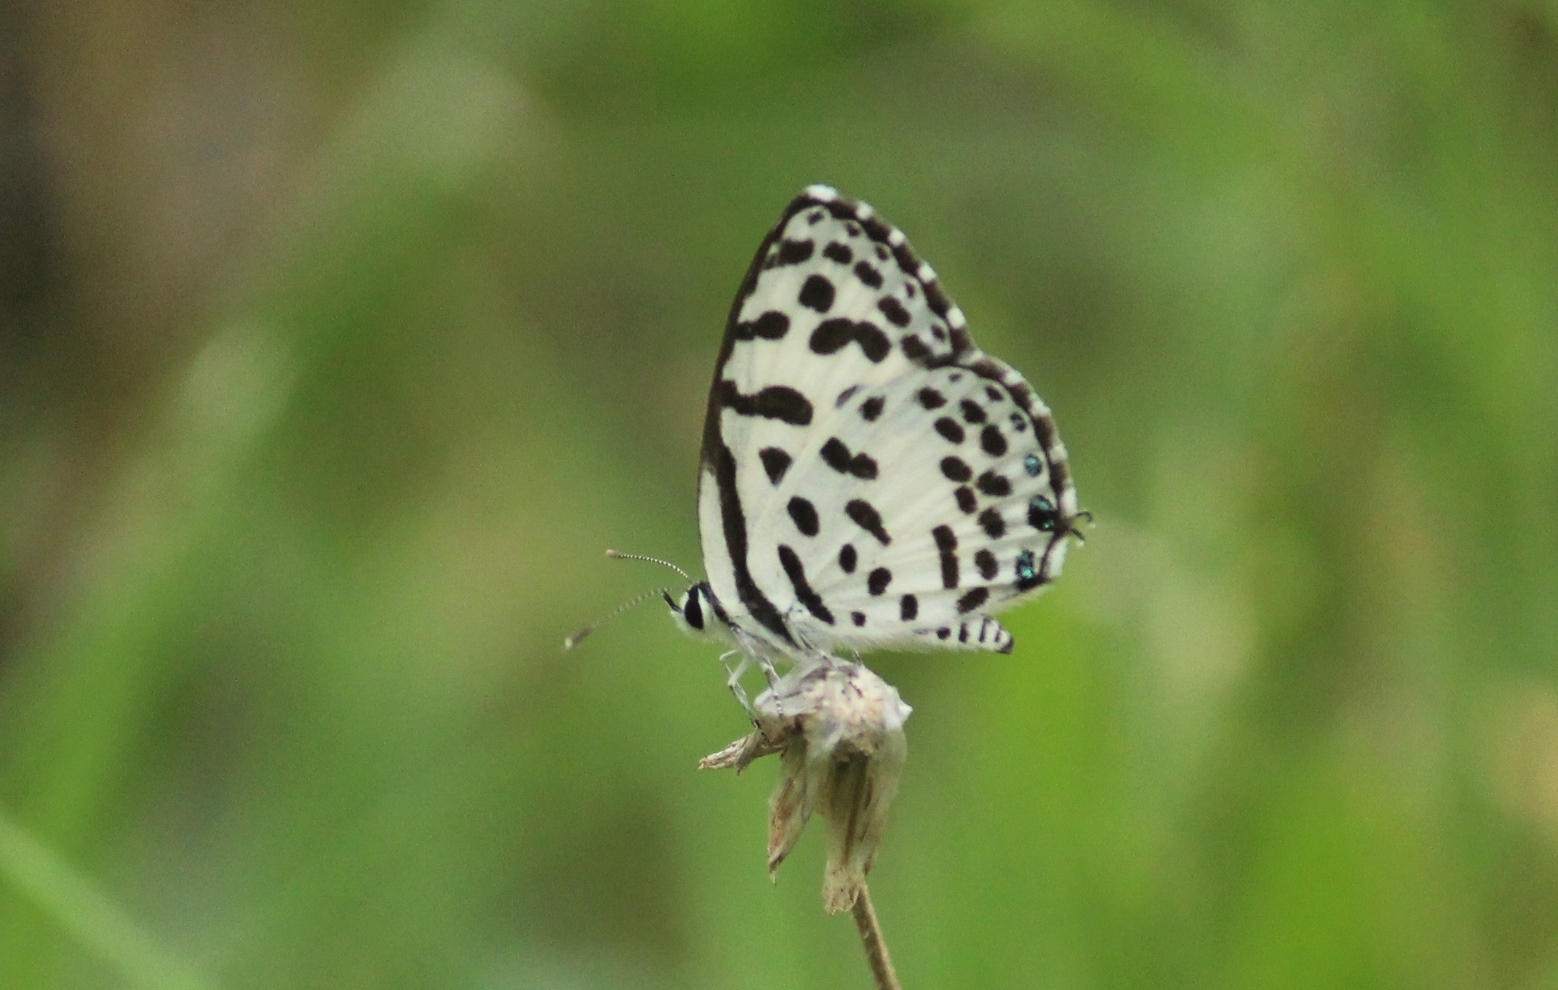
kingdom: Animalia
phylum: Arthropoda
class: Insecta
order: Lepidoptera
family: Lycaenidae
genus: Castalius
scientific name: Castalius rosimon
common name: Common pierrot
